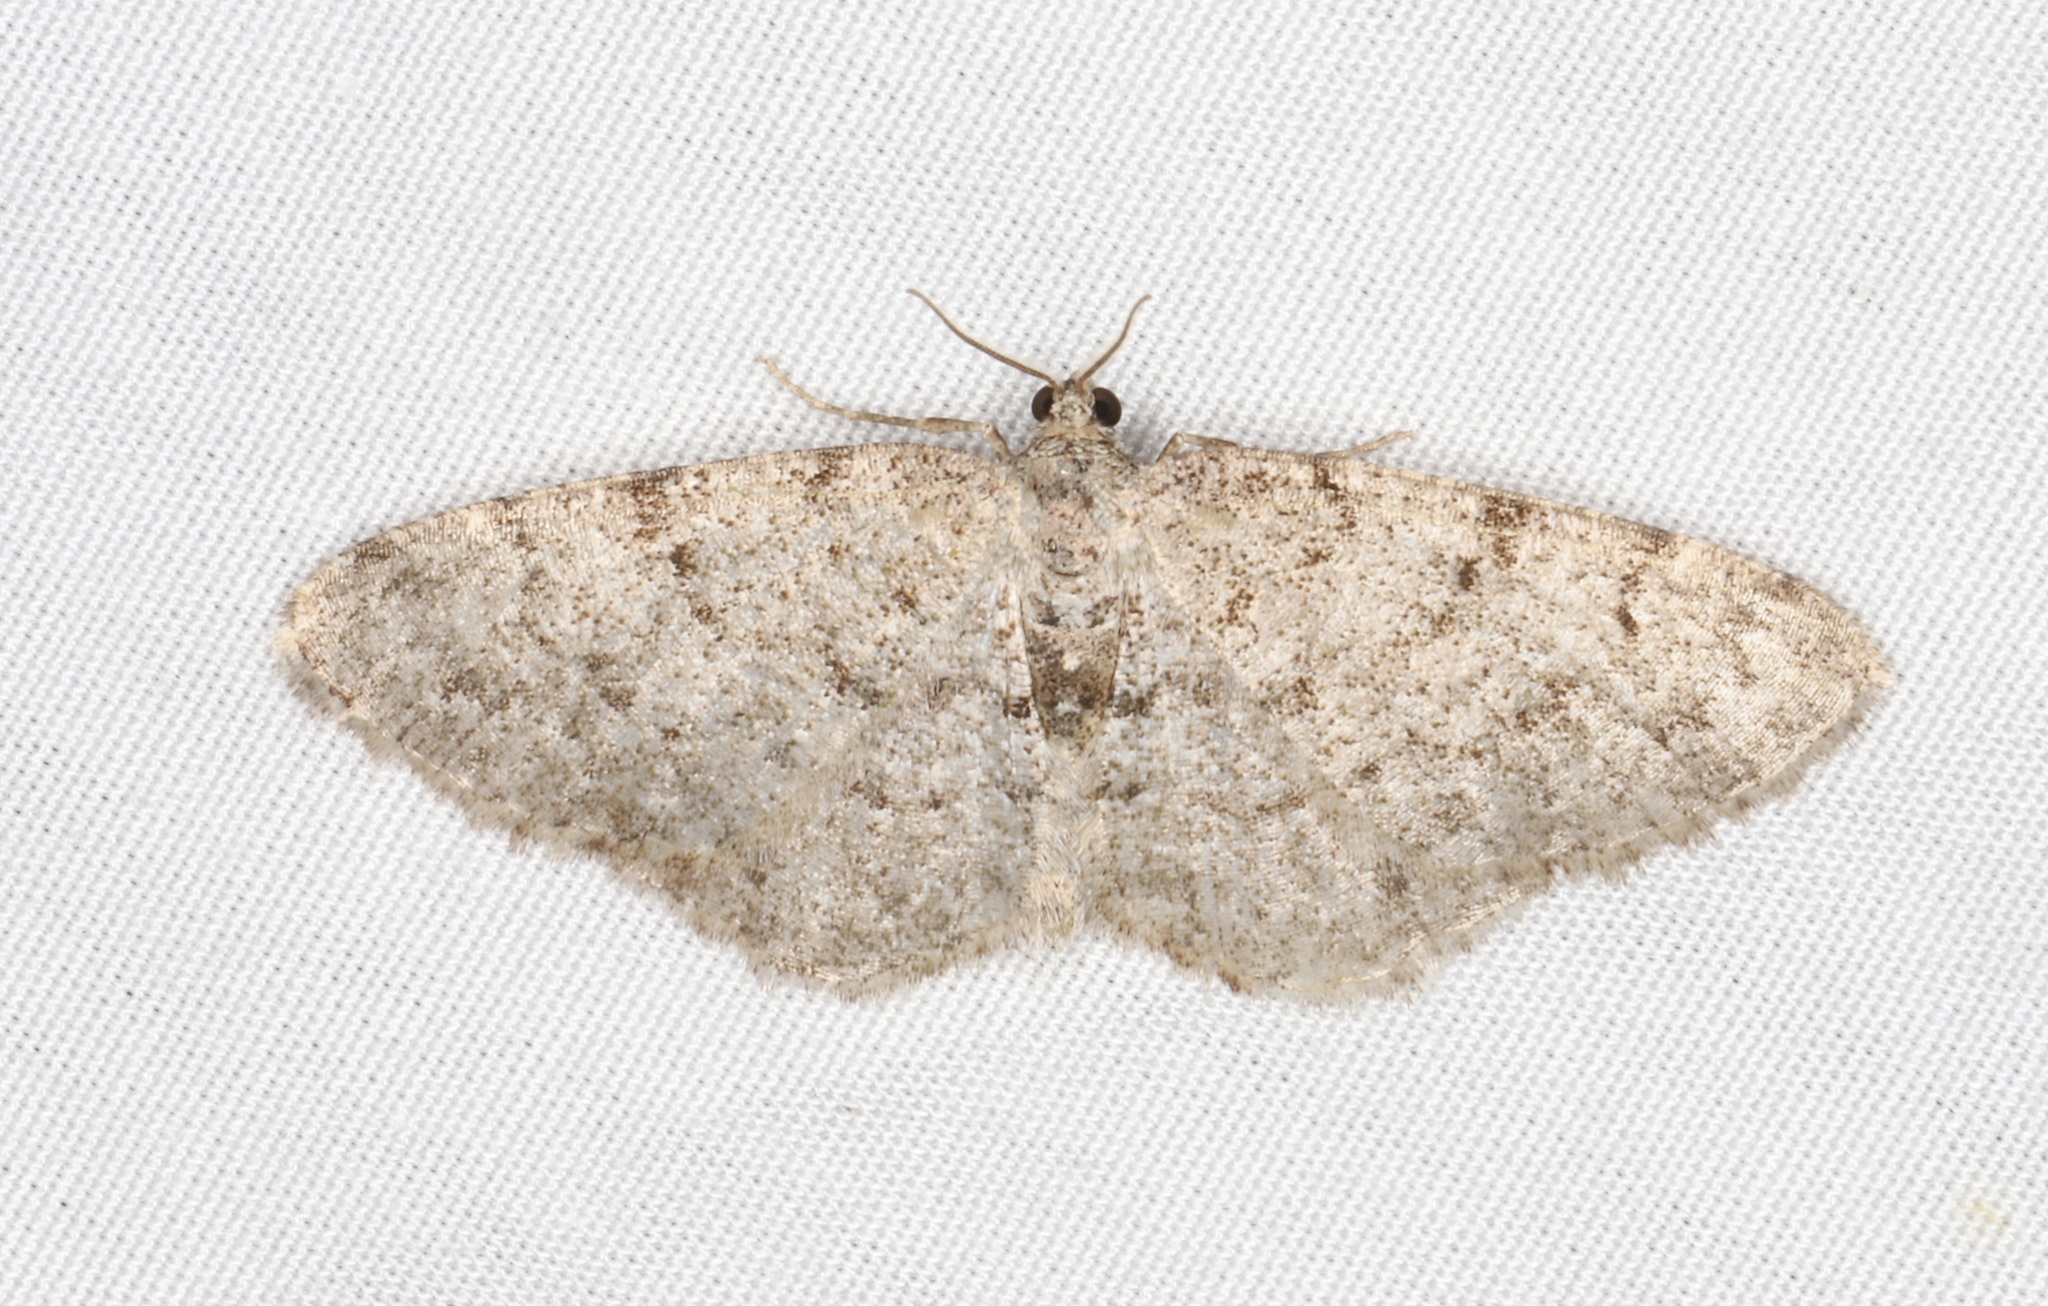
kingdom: Animalia
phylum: Arthropoda
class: Insecta
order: Lepidoptera
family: Geometridae
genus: Aethalura
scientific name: Aethalura intertexta
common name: Four-barred gray
